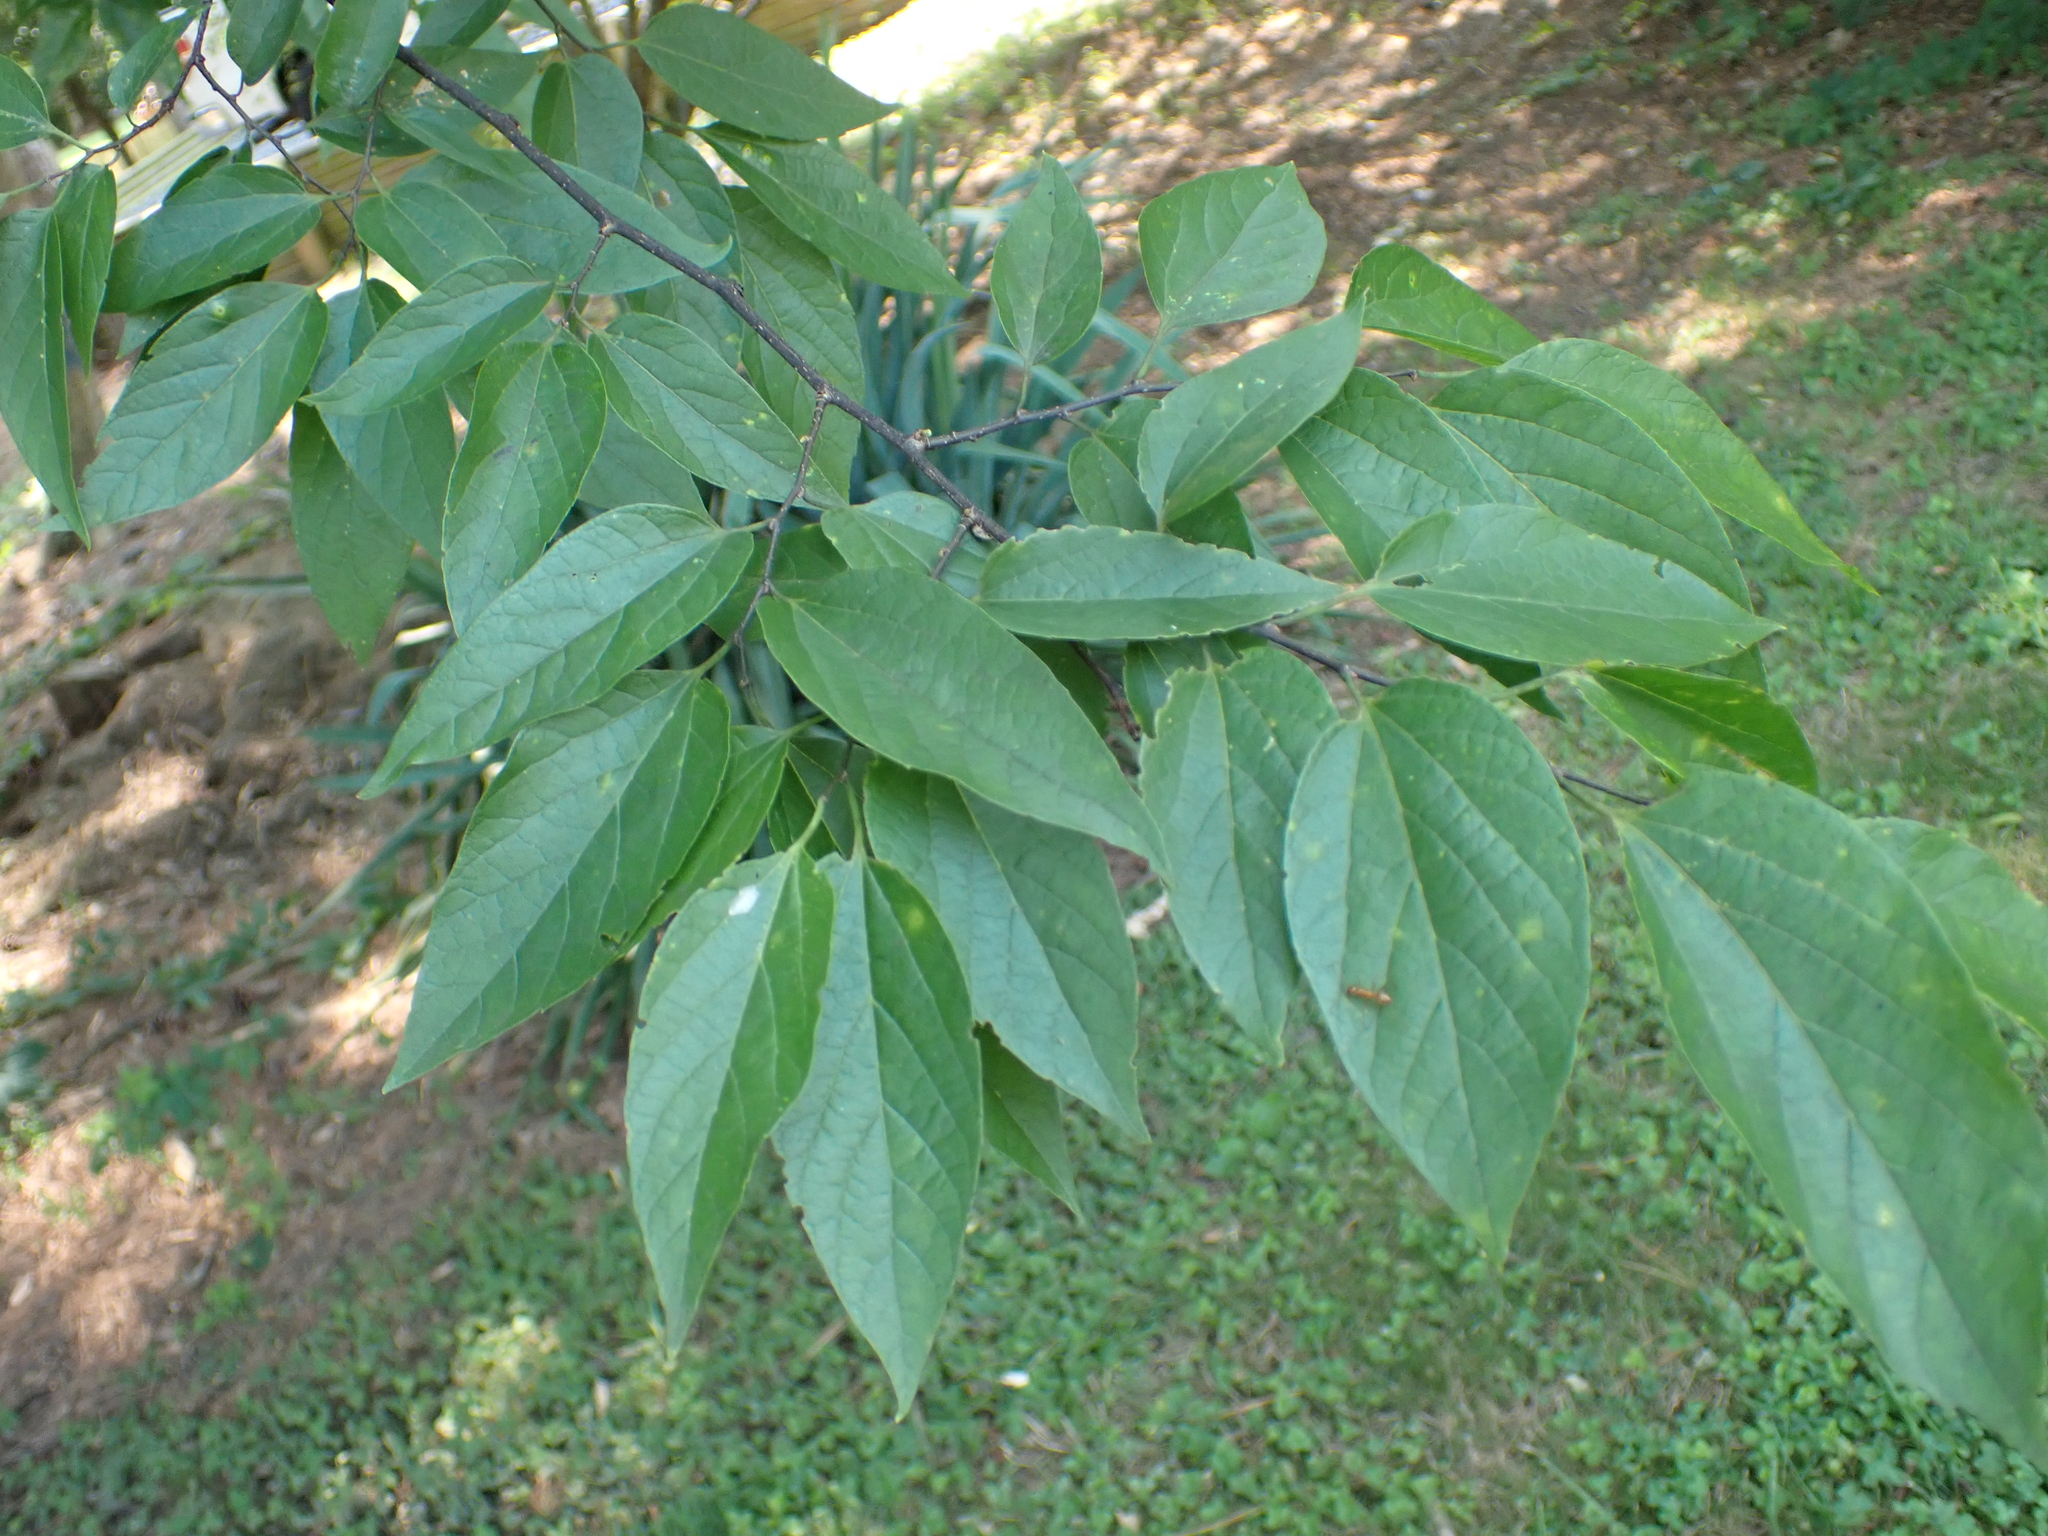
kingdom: Plantae
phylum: Tracheophyta
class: Magnoliopsida
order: Rosales
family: Cannabaceae
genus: Celtis
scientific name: Celtis laevigata
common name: Sugarberry
